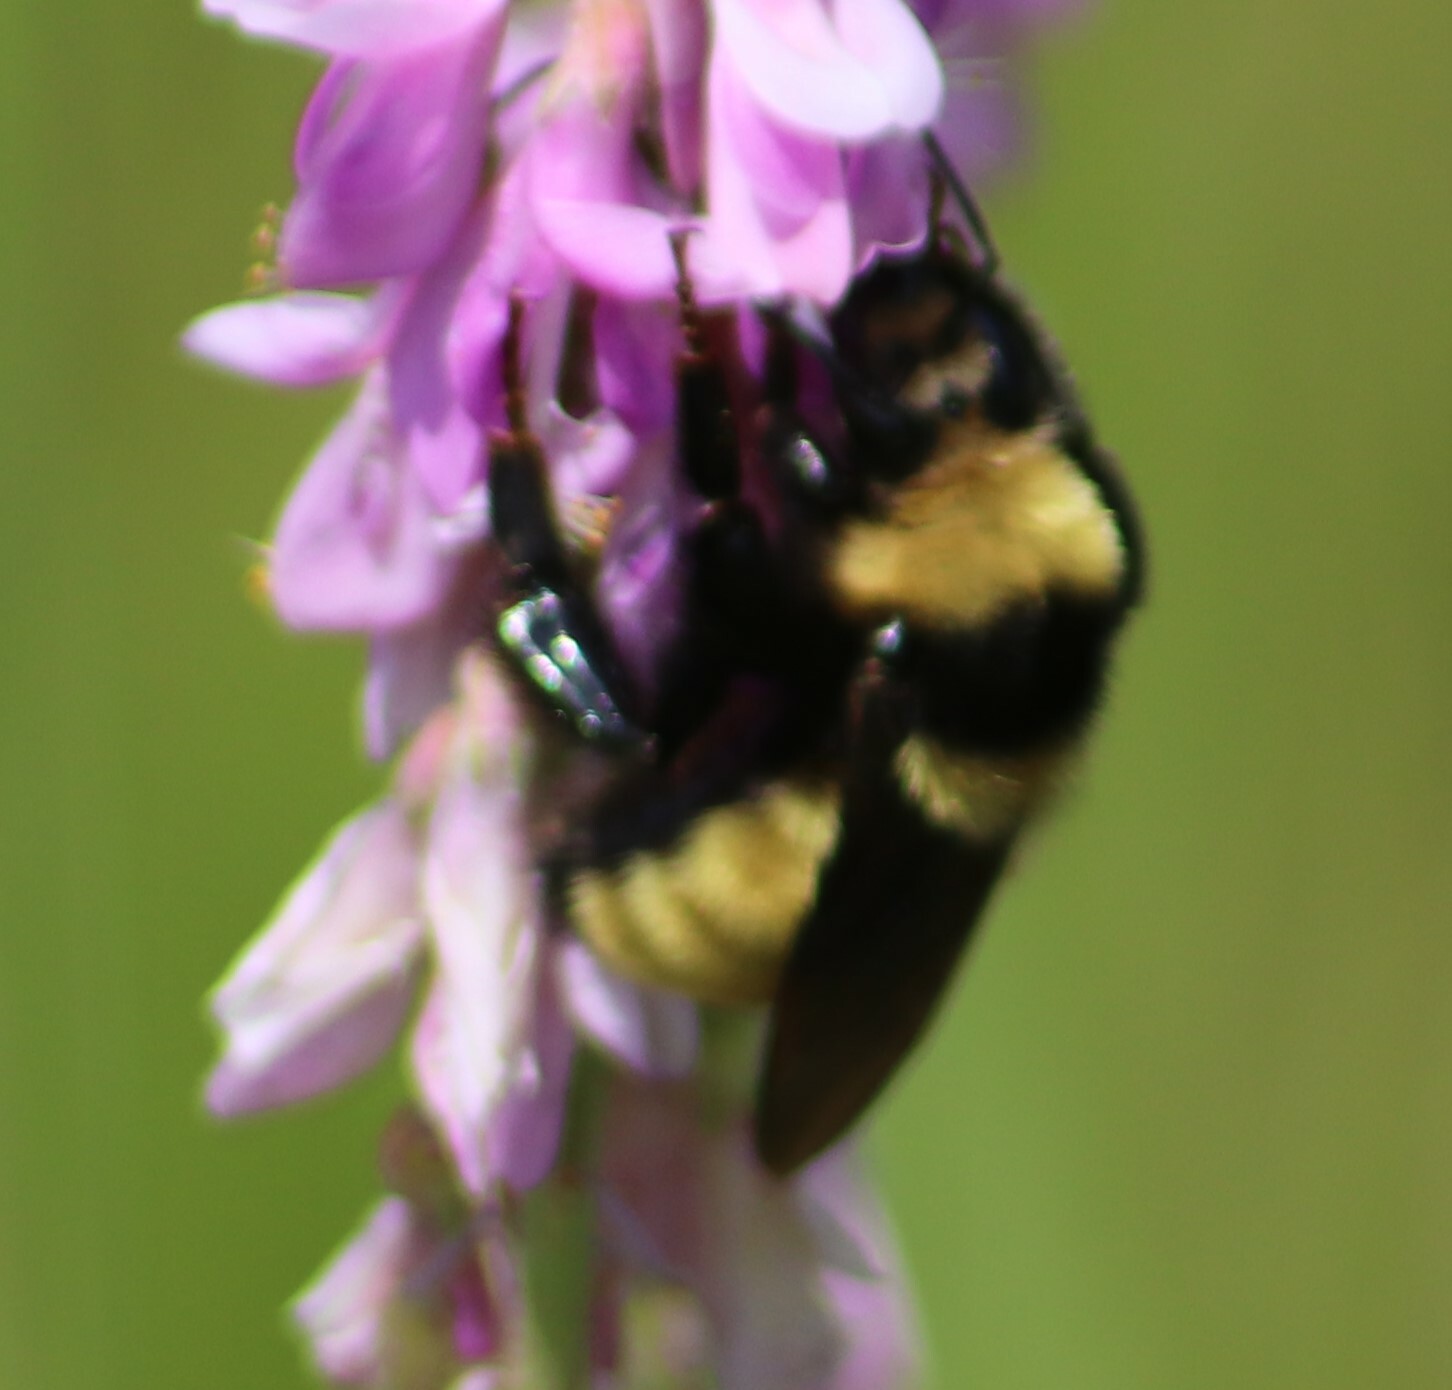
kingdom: Animalia
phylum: Arthropoda
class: Insecta
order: Hymenoptera
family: Apidae
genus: Bombus
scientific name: Bombus borealis
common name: Northern amber bumble bee
